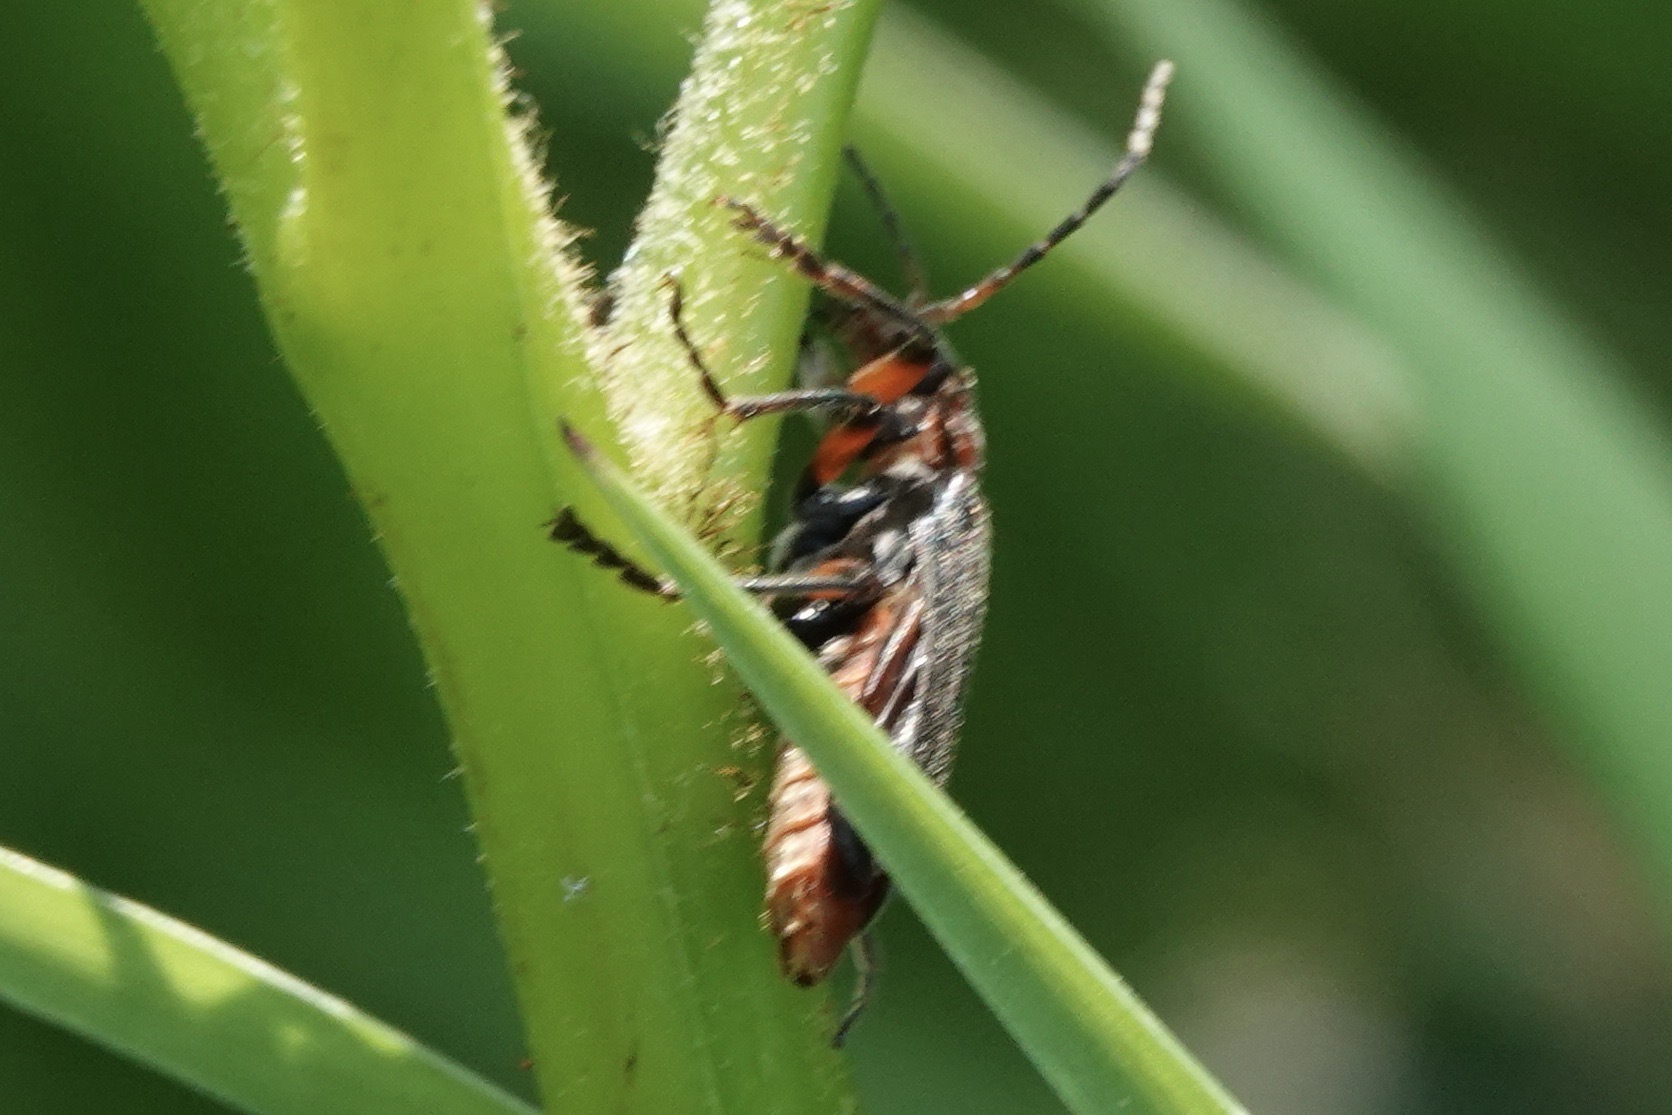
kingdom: Animalia
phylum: Arthropoda
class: Insecta
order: Coleoptera
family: Cantharidae
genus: Cantharis
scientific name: Cantharis rustica
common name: Soldier beetle
